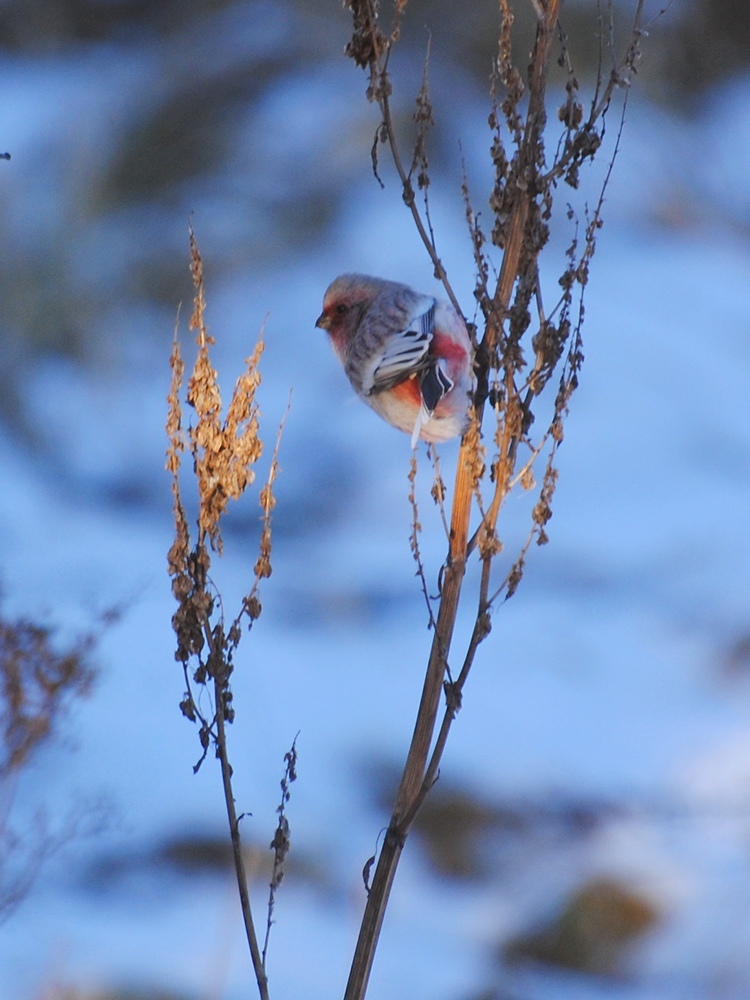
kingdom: Animalia
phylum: Chordata
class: Aves
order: Passeriformes
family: Fringillidae
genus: Carpodacus
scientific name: Carpodacus sibiricus
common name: Long-tailed rosefinch
